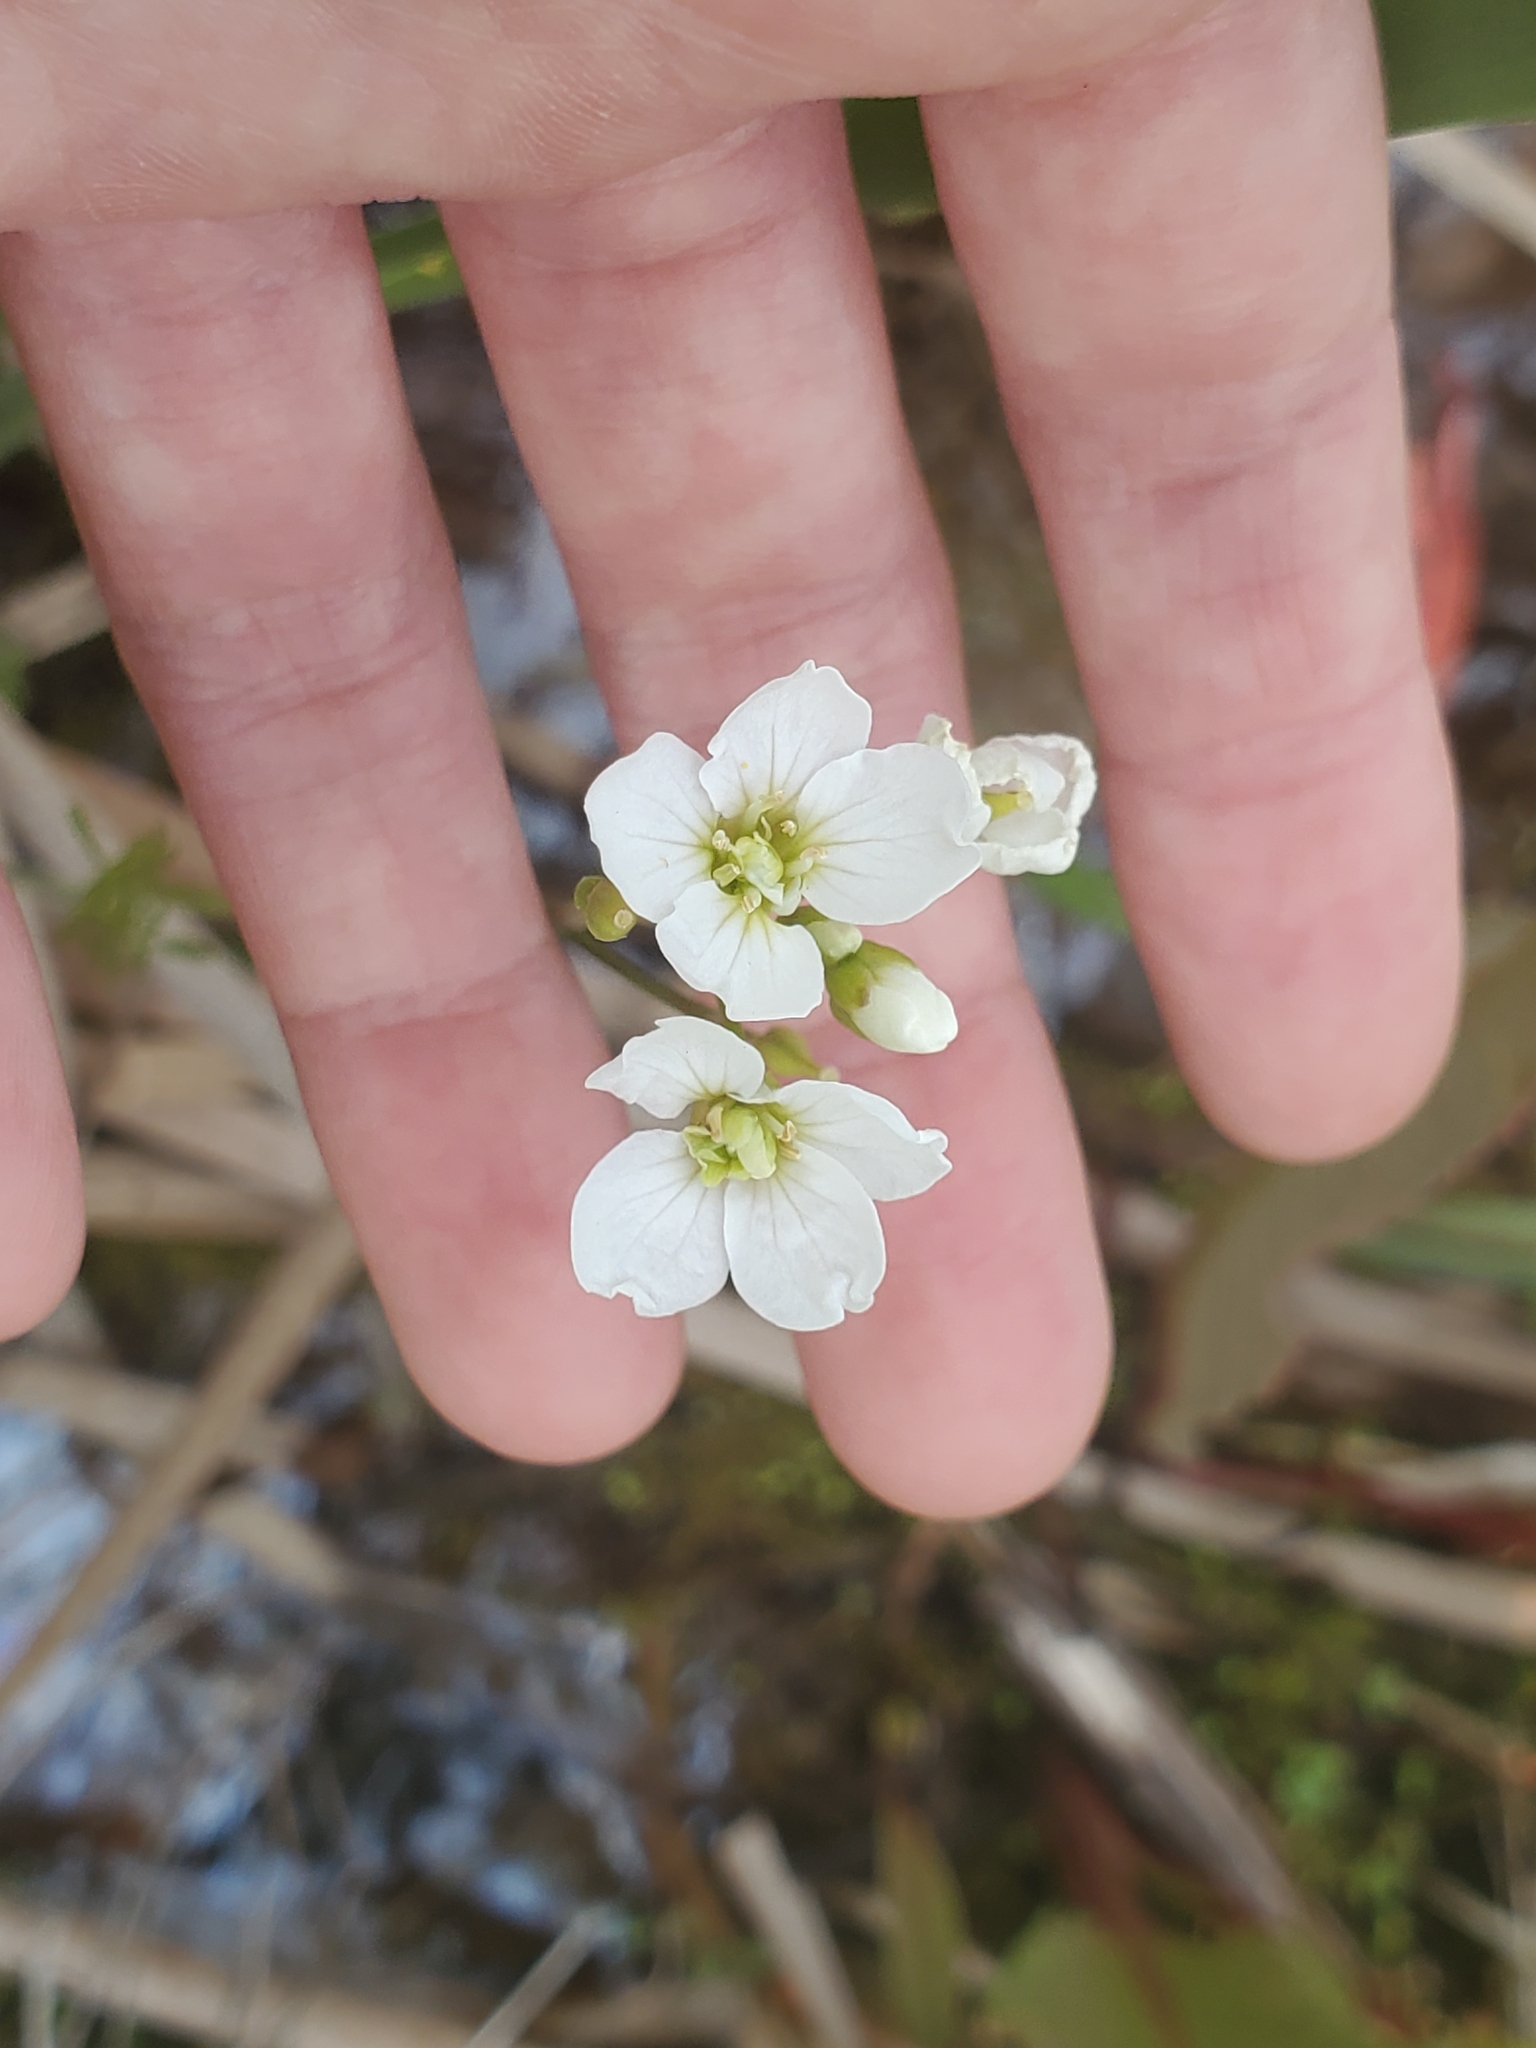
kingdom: Plantae
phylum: Tracheophyta
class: Magnoliopsida
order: Brassicales
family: Brassicaceae
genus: Cardamine
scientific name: Cardamine dentata
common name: Toothed bittercress
